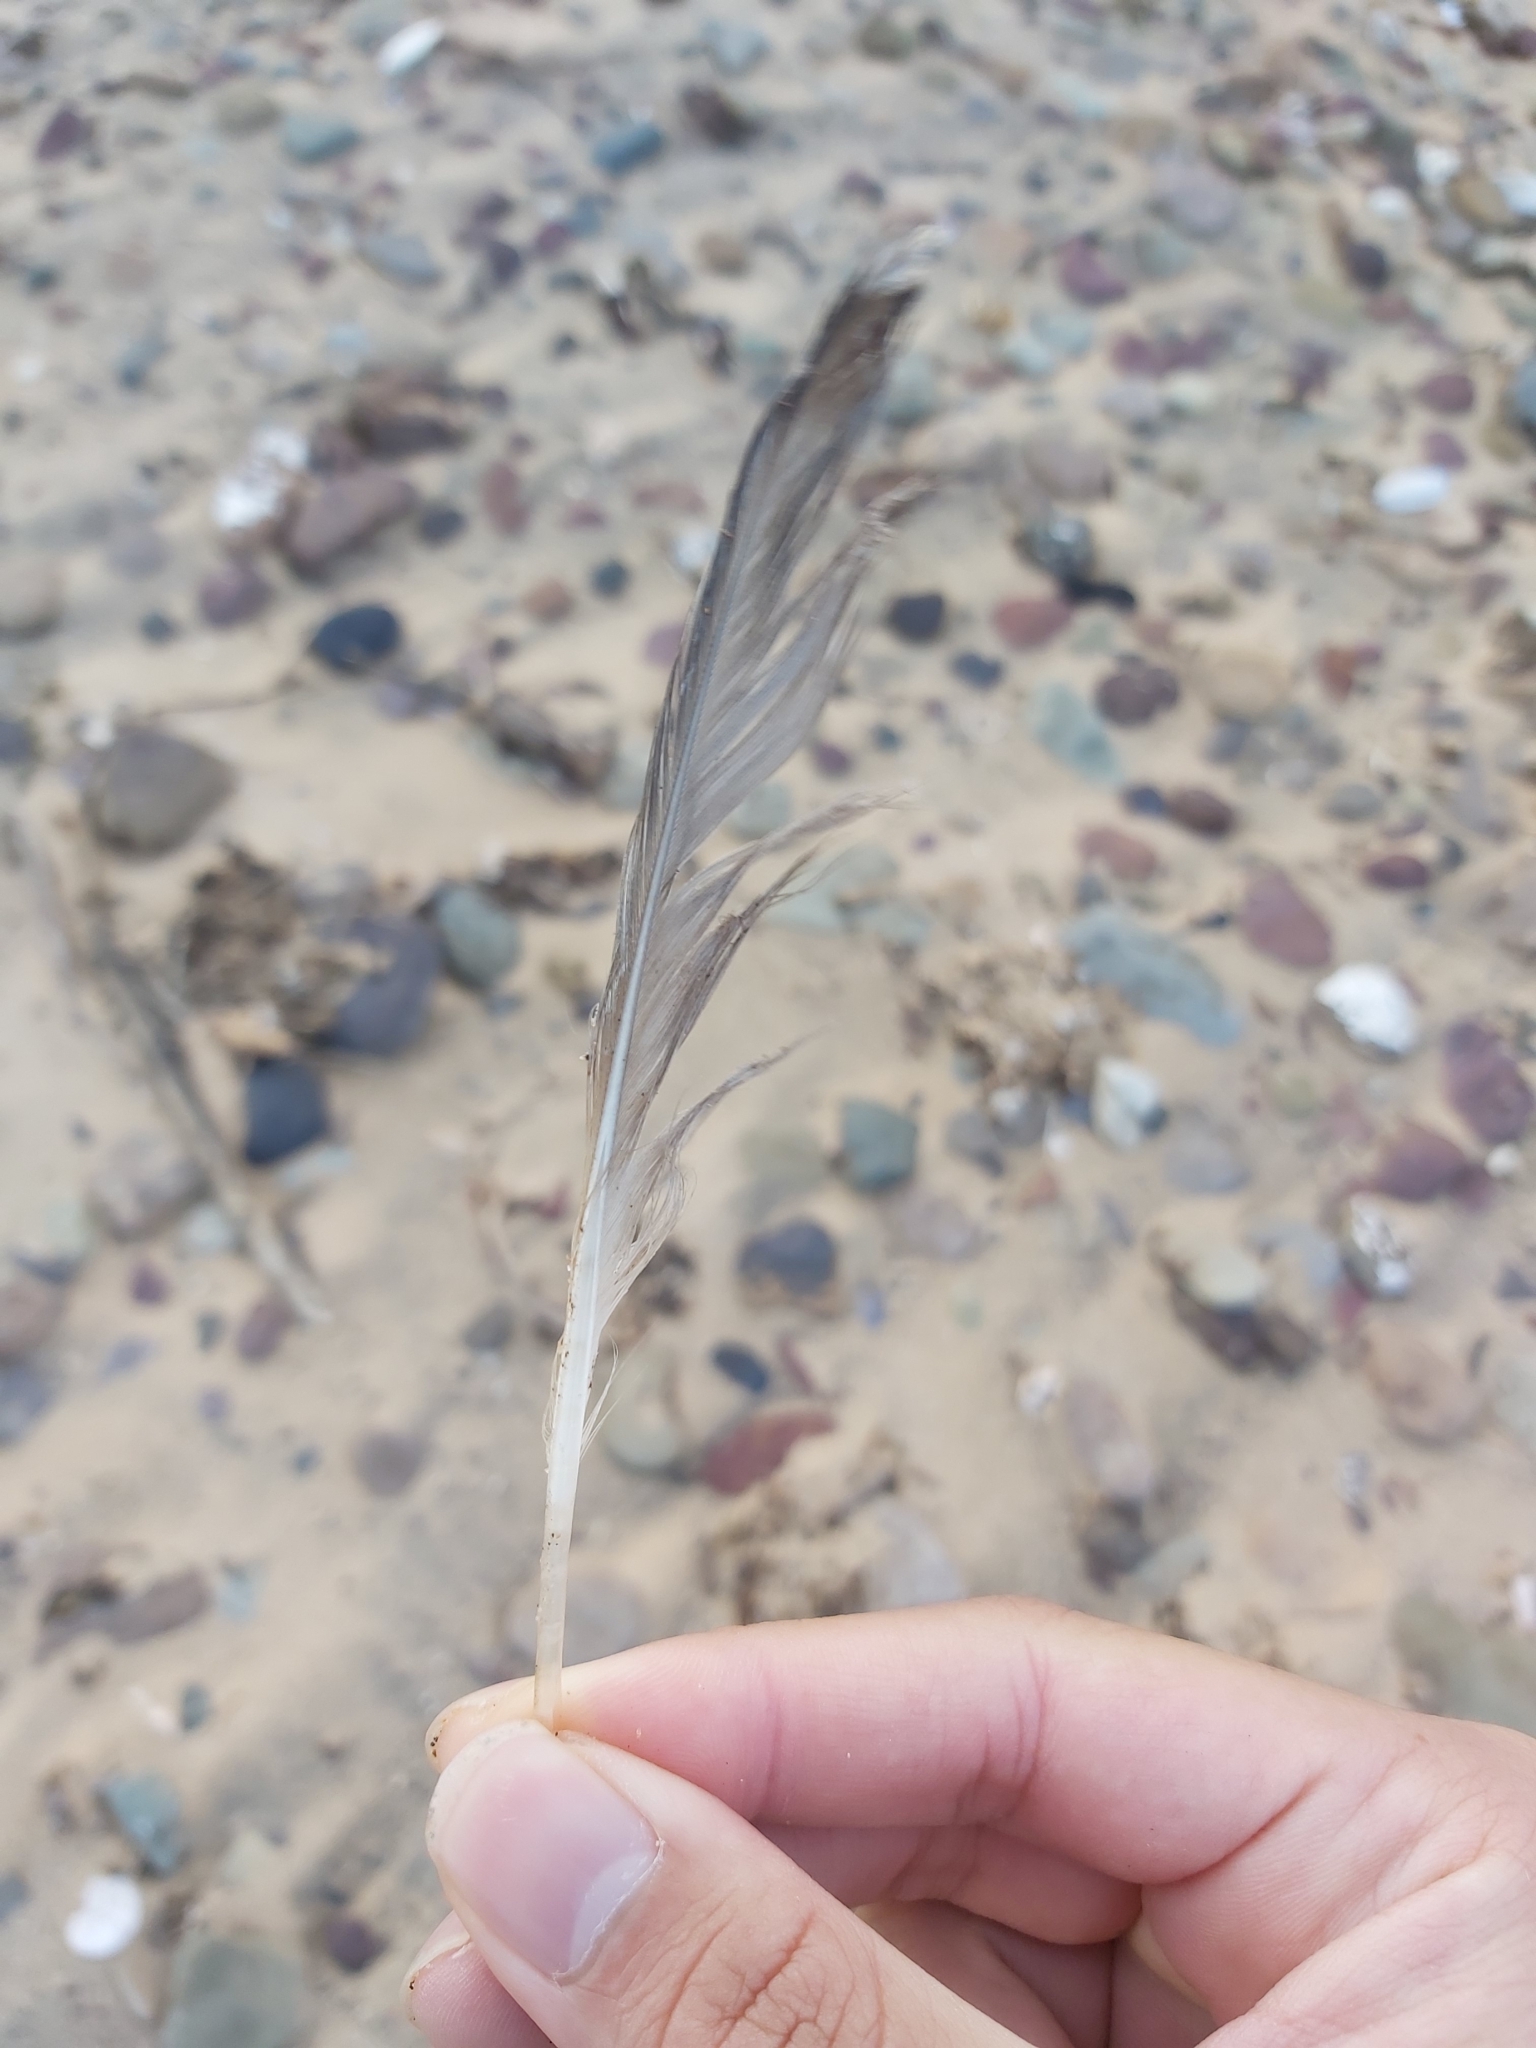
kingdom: Animalia
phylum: Chordata
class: Aves
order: Charadriiformes
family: Laridae
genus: Chroicocephalus
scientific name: Chroicocephalus novaehollandiae
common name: Silver gull
